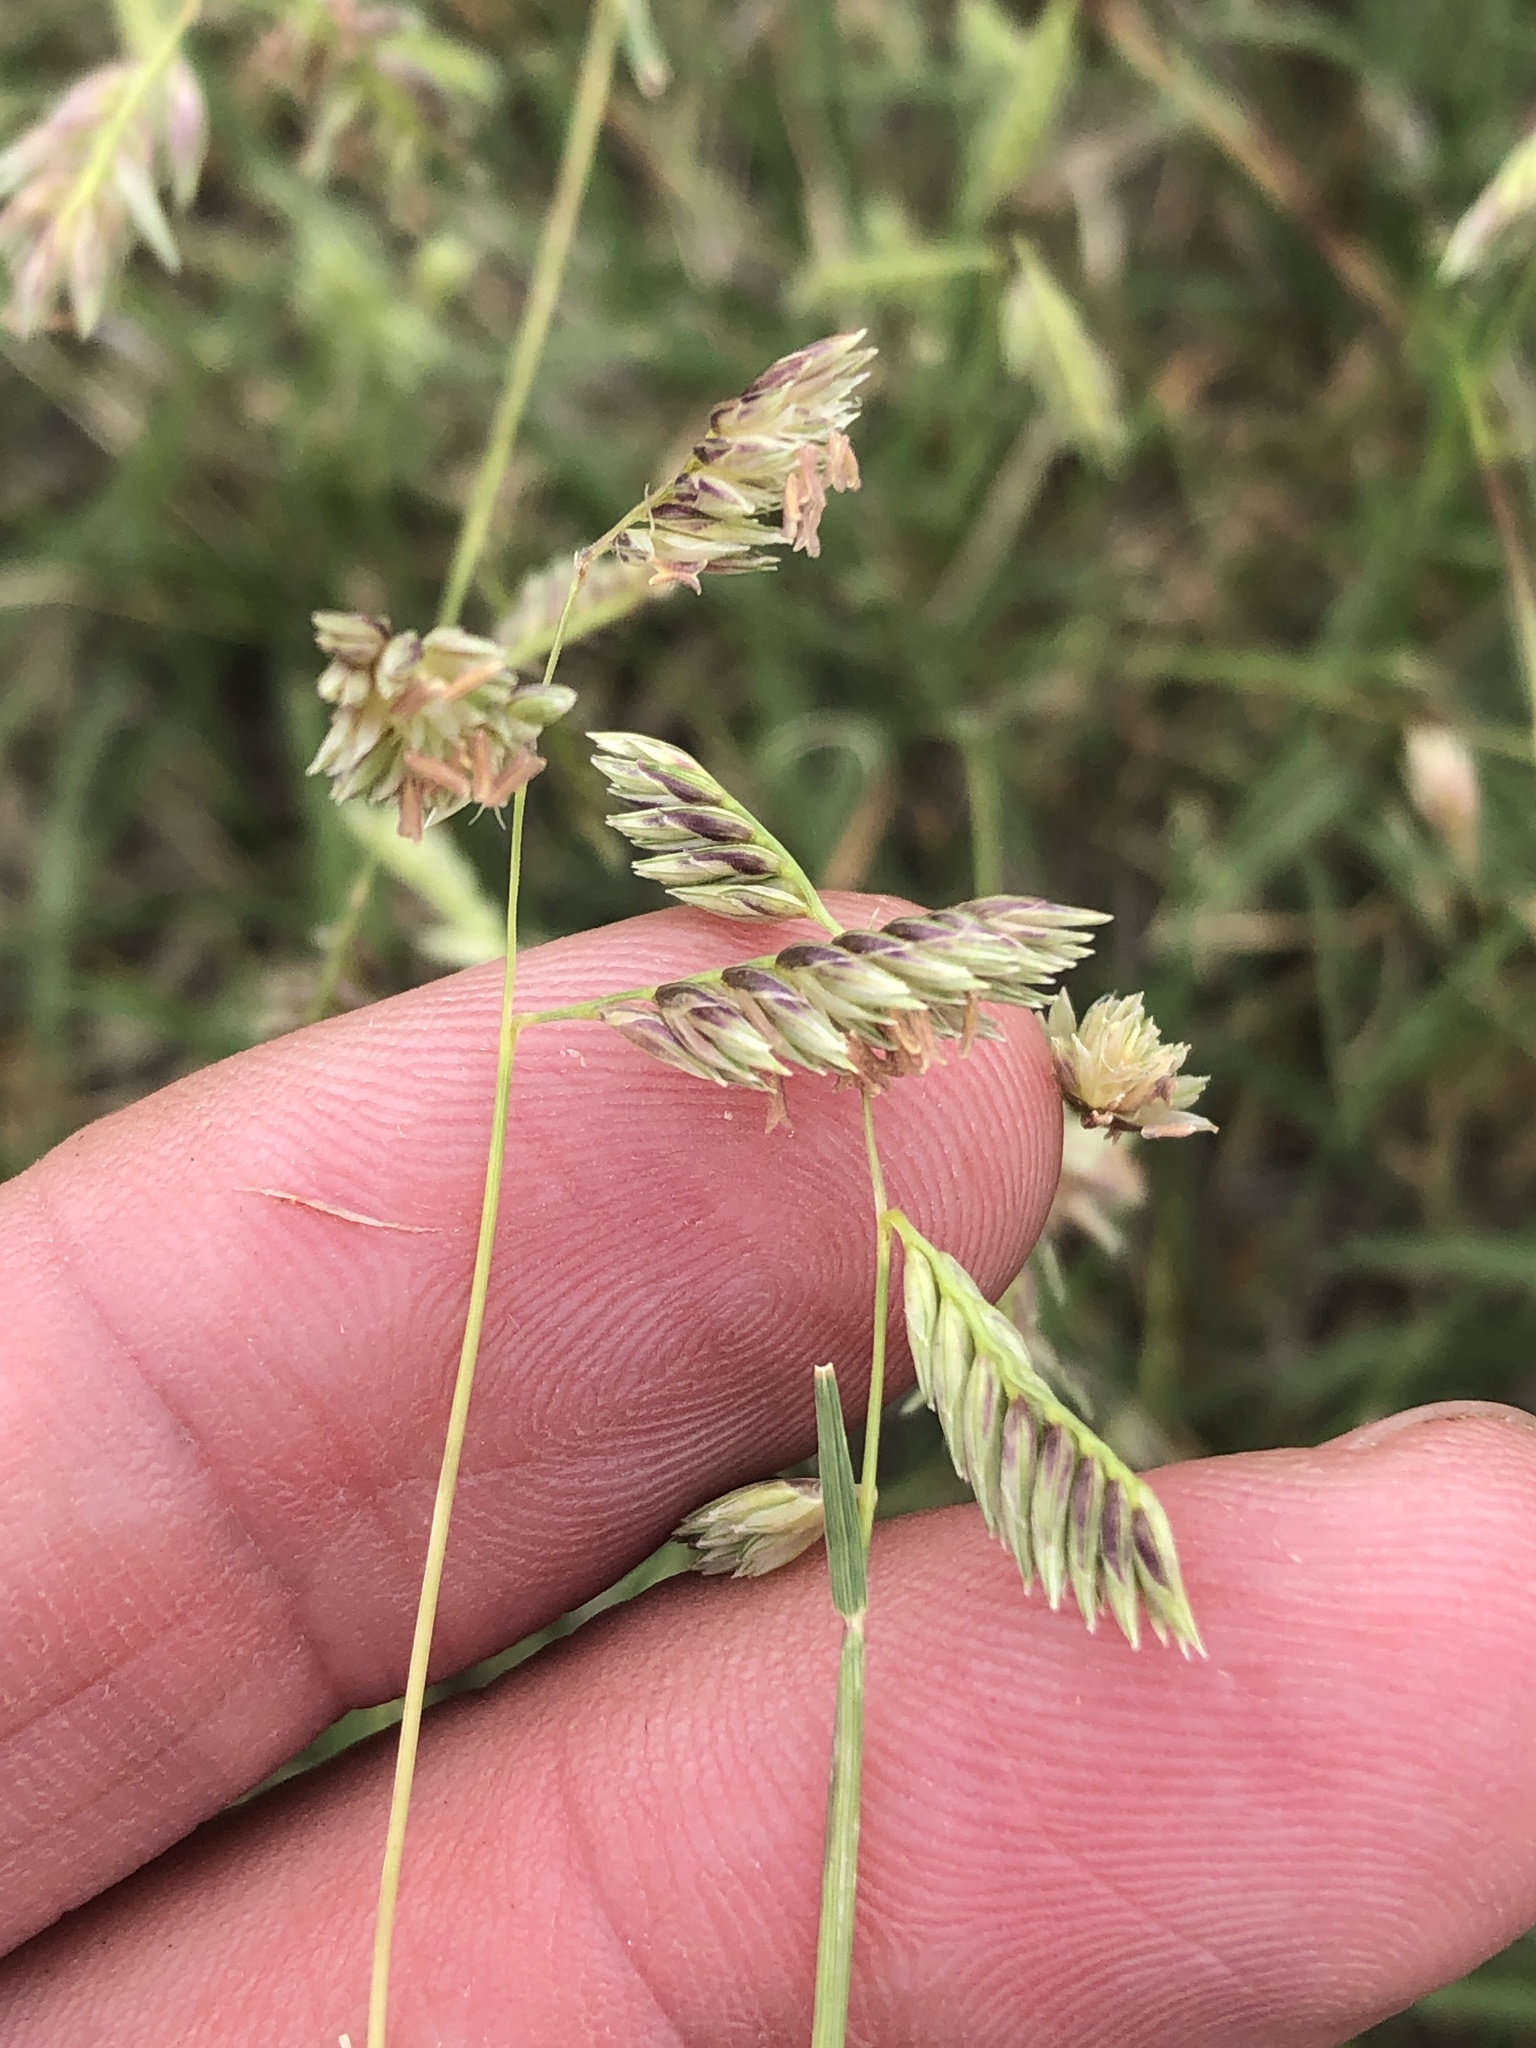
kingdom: Plantae
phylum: Tracheophyta
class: Liliopsida
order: Poales
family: Poaceae
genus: Bouteloua
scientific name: Bouteloua dactyloides
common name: Buffalo grass
